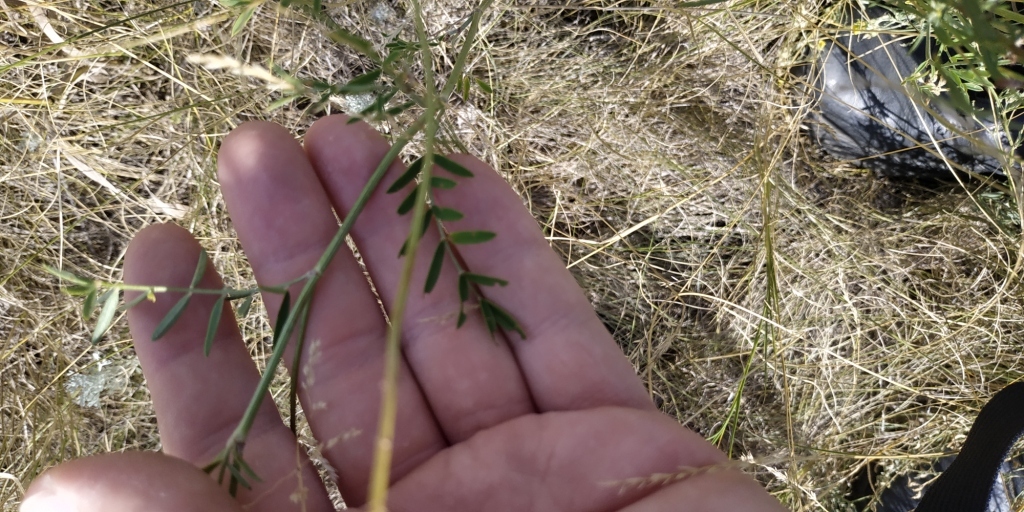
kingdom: Plantae
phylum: Tracheophyta
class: Magnoliopsida
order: Fabales
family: Fabaceae
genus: Onobrychis
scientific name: Onobrychis viciifolia
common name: Sainfoin
